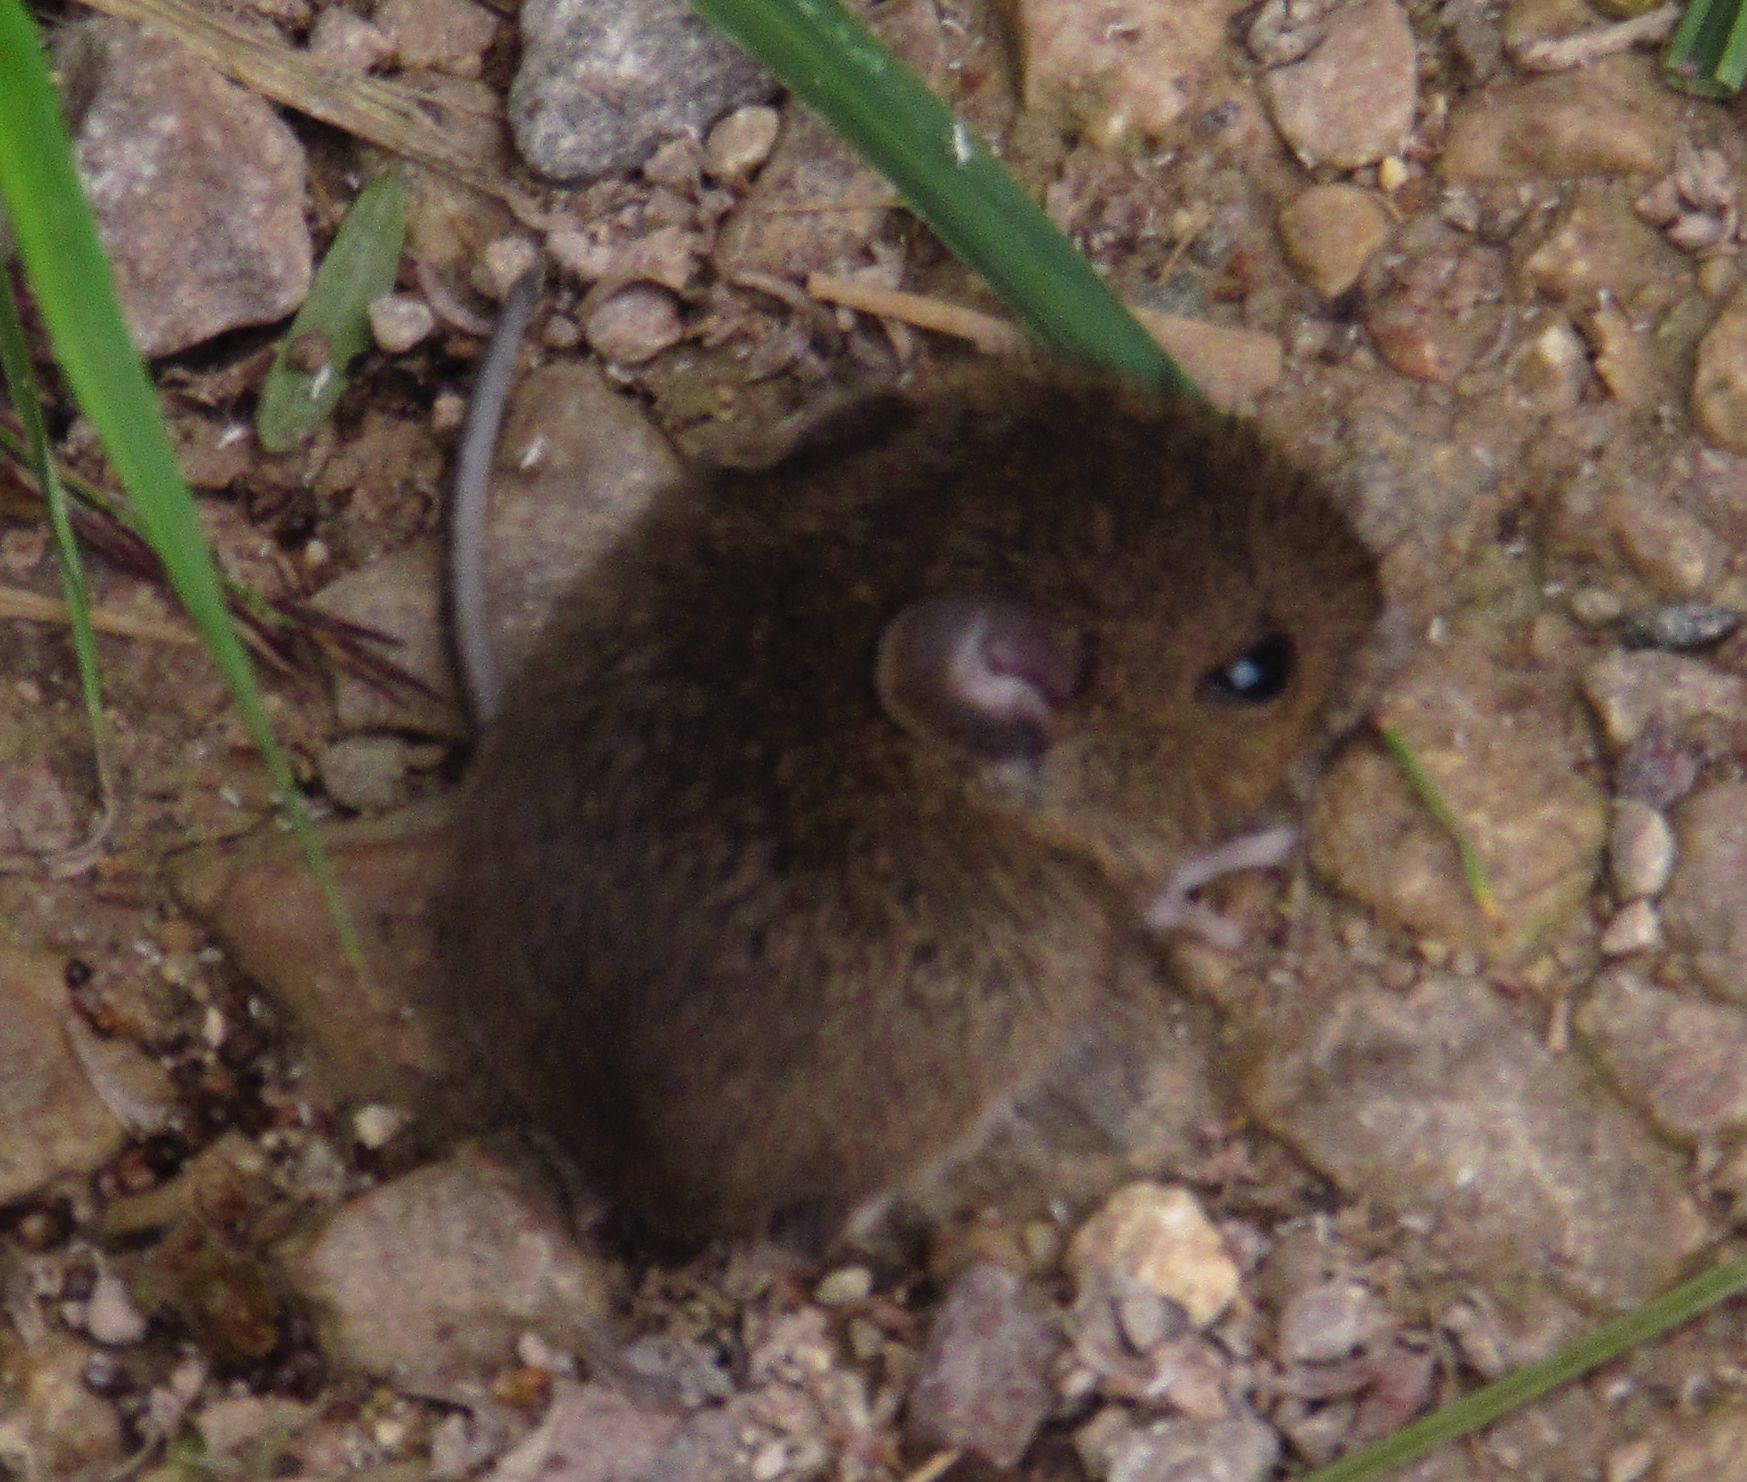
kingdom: Animalia
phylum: Chordata
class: Mammalia
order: Rodentia
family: Muridae
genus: Apodemus
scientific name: Apodemus sylvaticus
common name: Wood mouse
